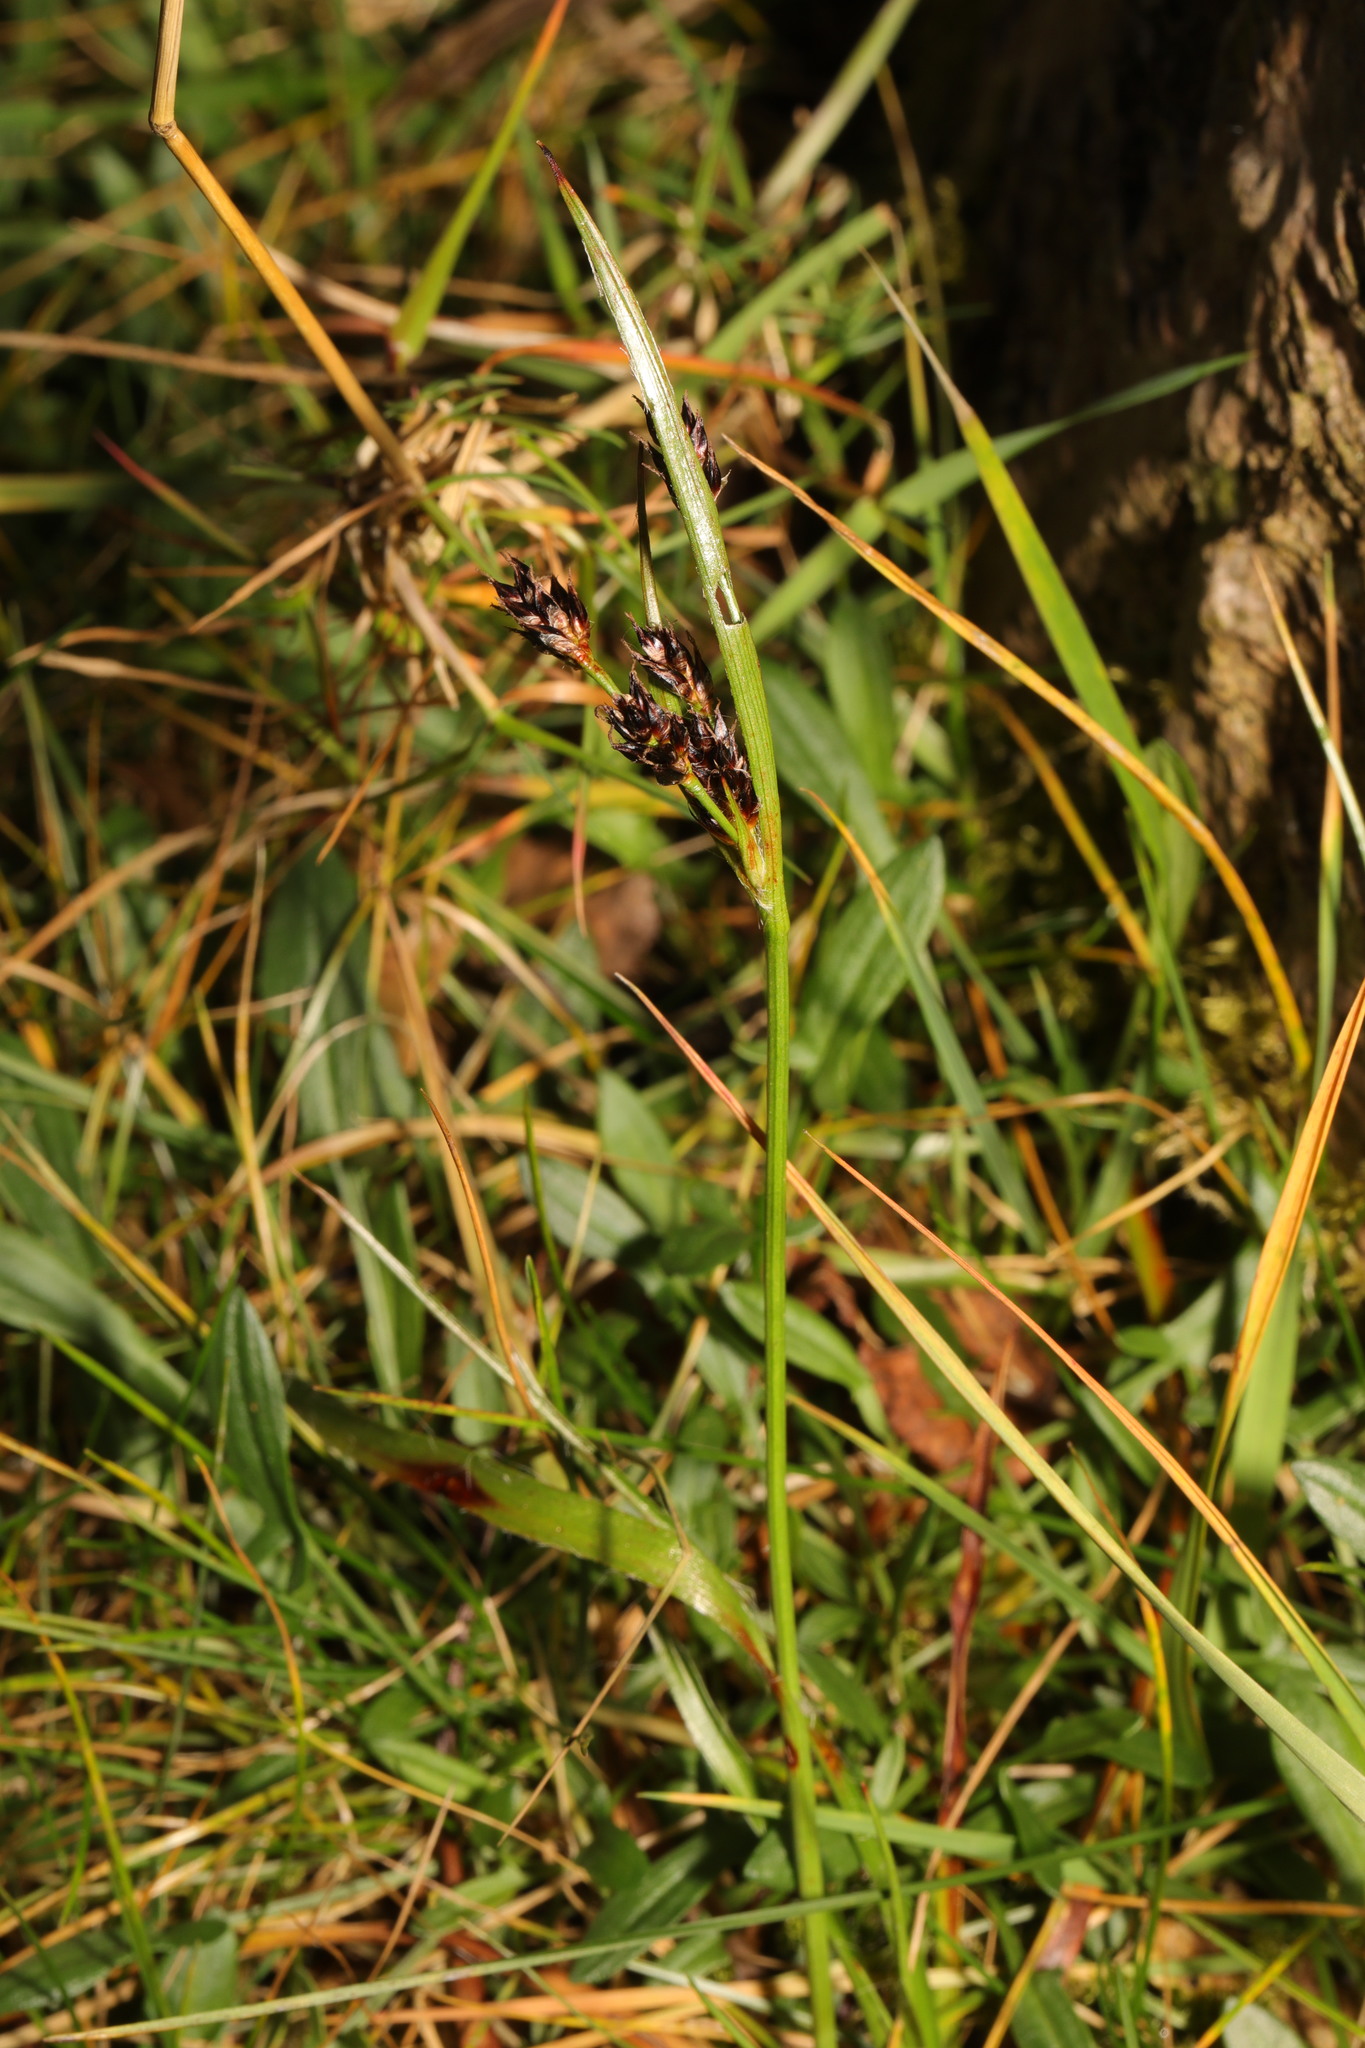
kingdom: Plantae
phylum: Tracheophyta
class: Liliopsida
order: Poales
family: Juncaceae
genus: Luzula
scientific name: Luzula campestris
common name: Field wood-rush
